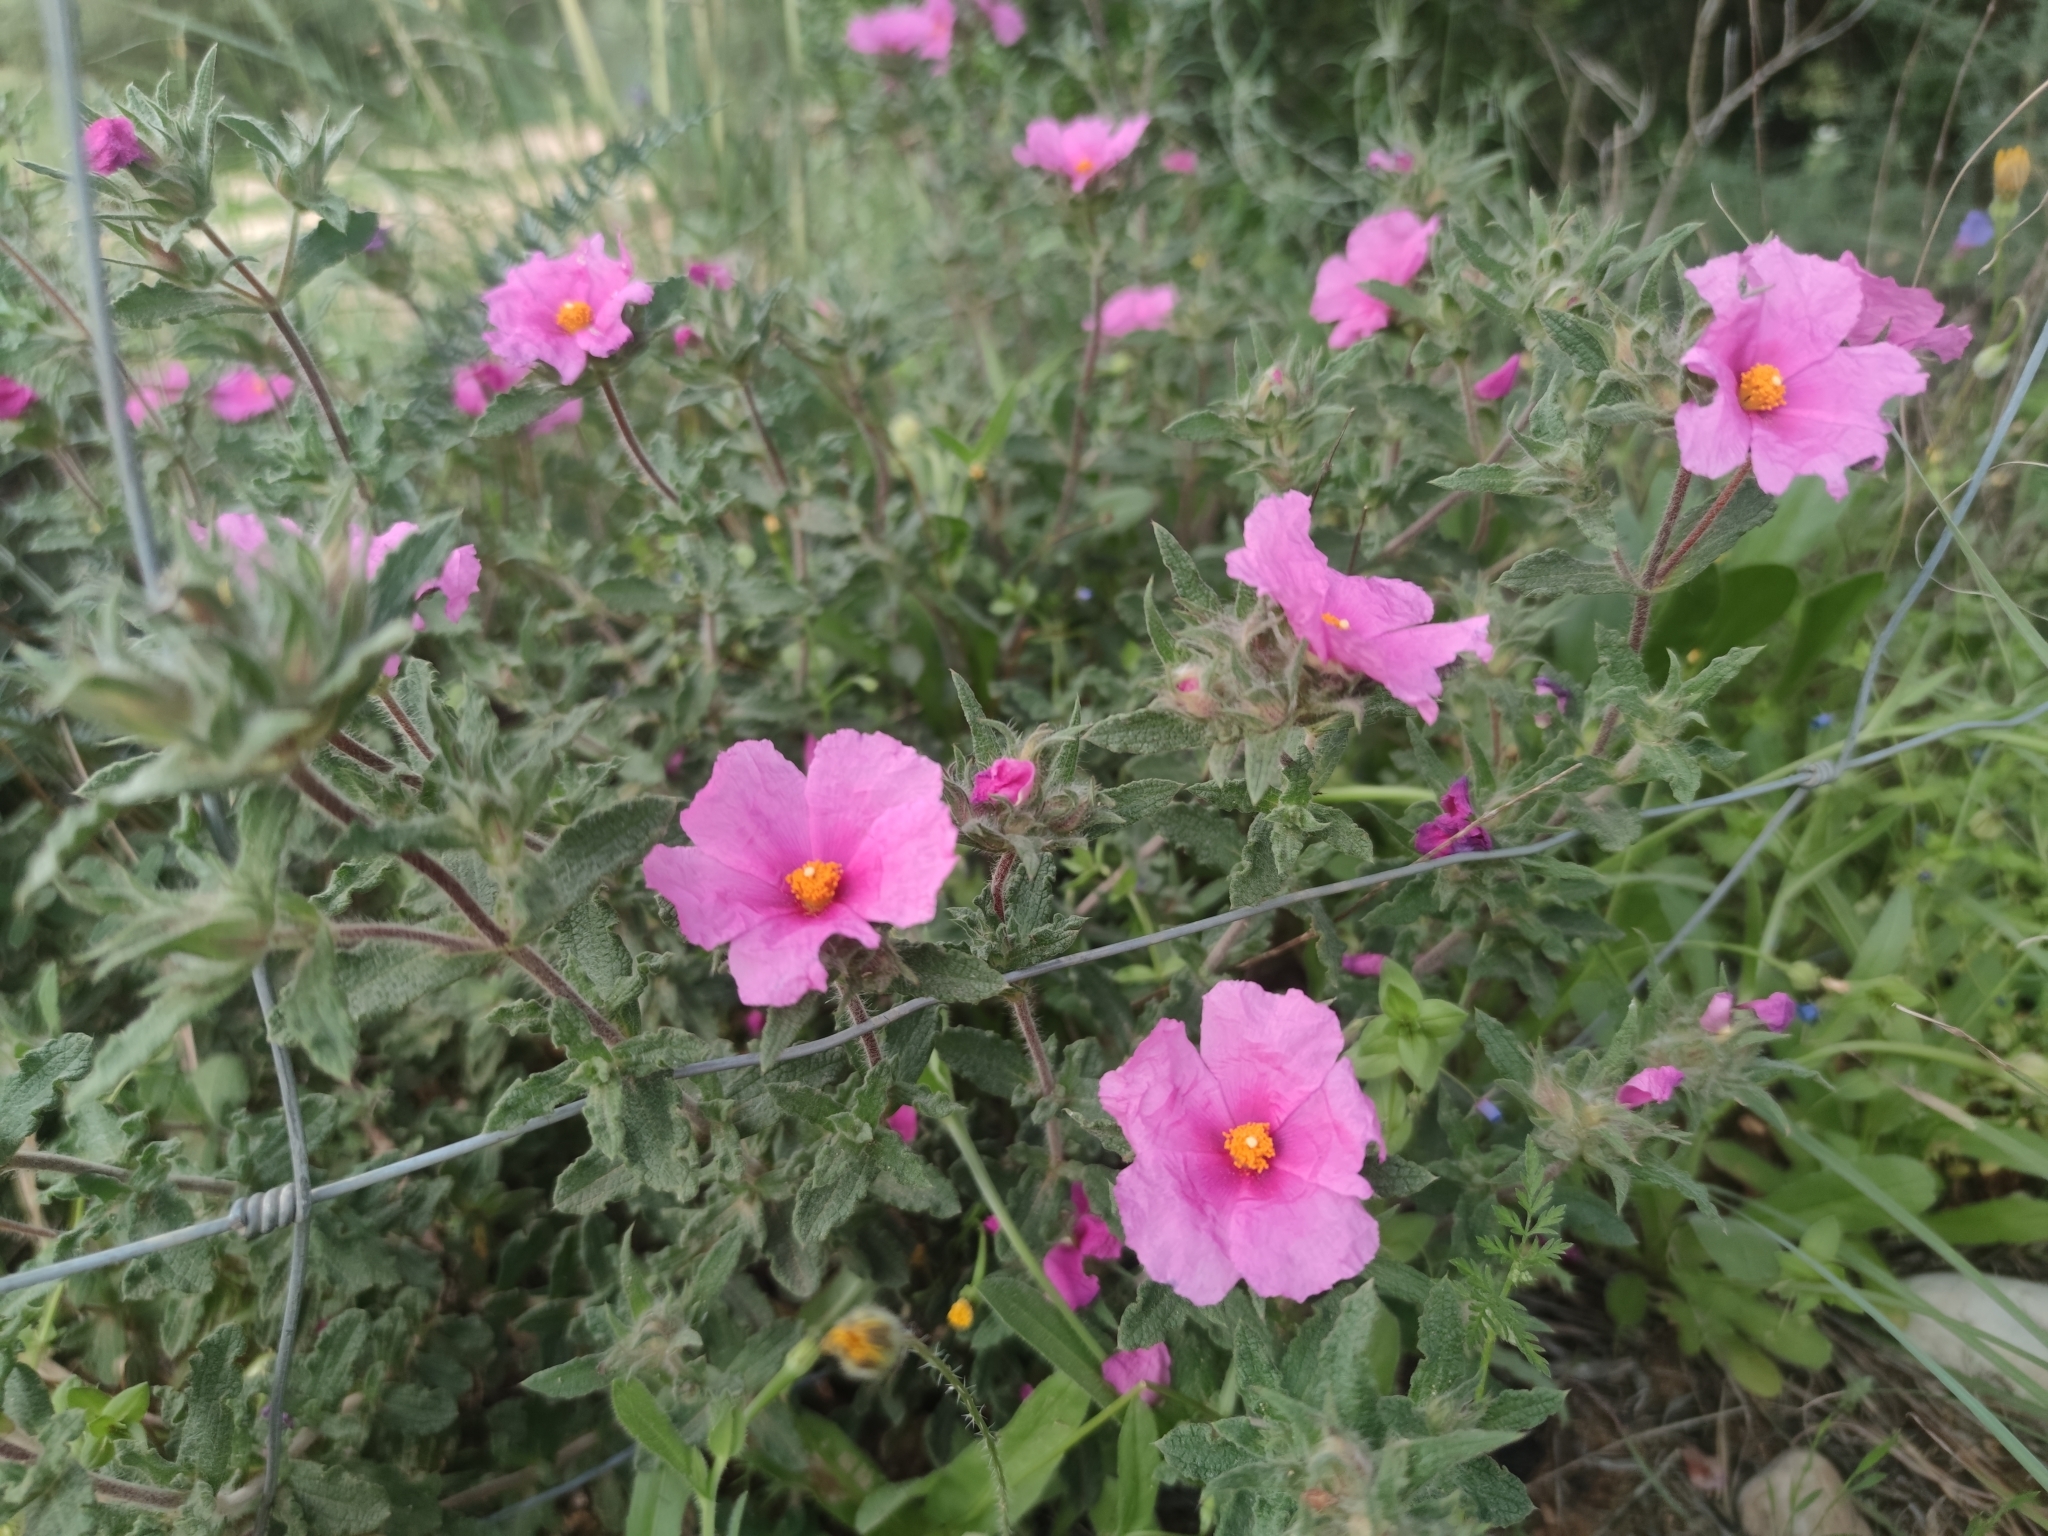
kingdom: Plantae
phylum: Tracheophyta
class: Magnoliopsida
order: Malvales
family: Cistaceae
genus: Cistus
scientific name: Cistus crispus
